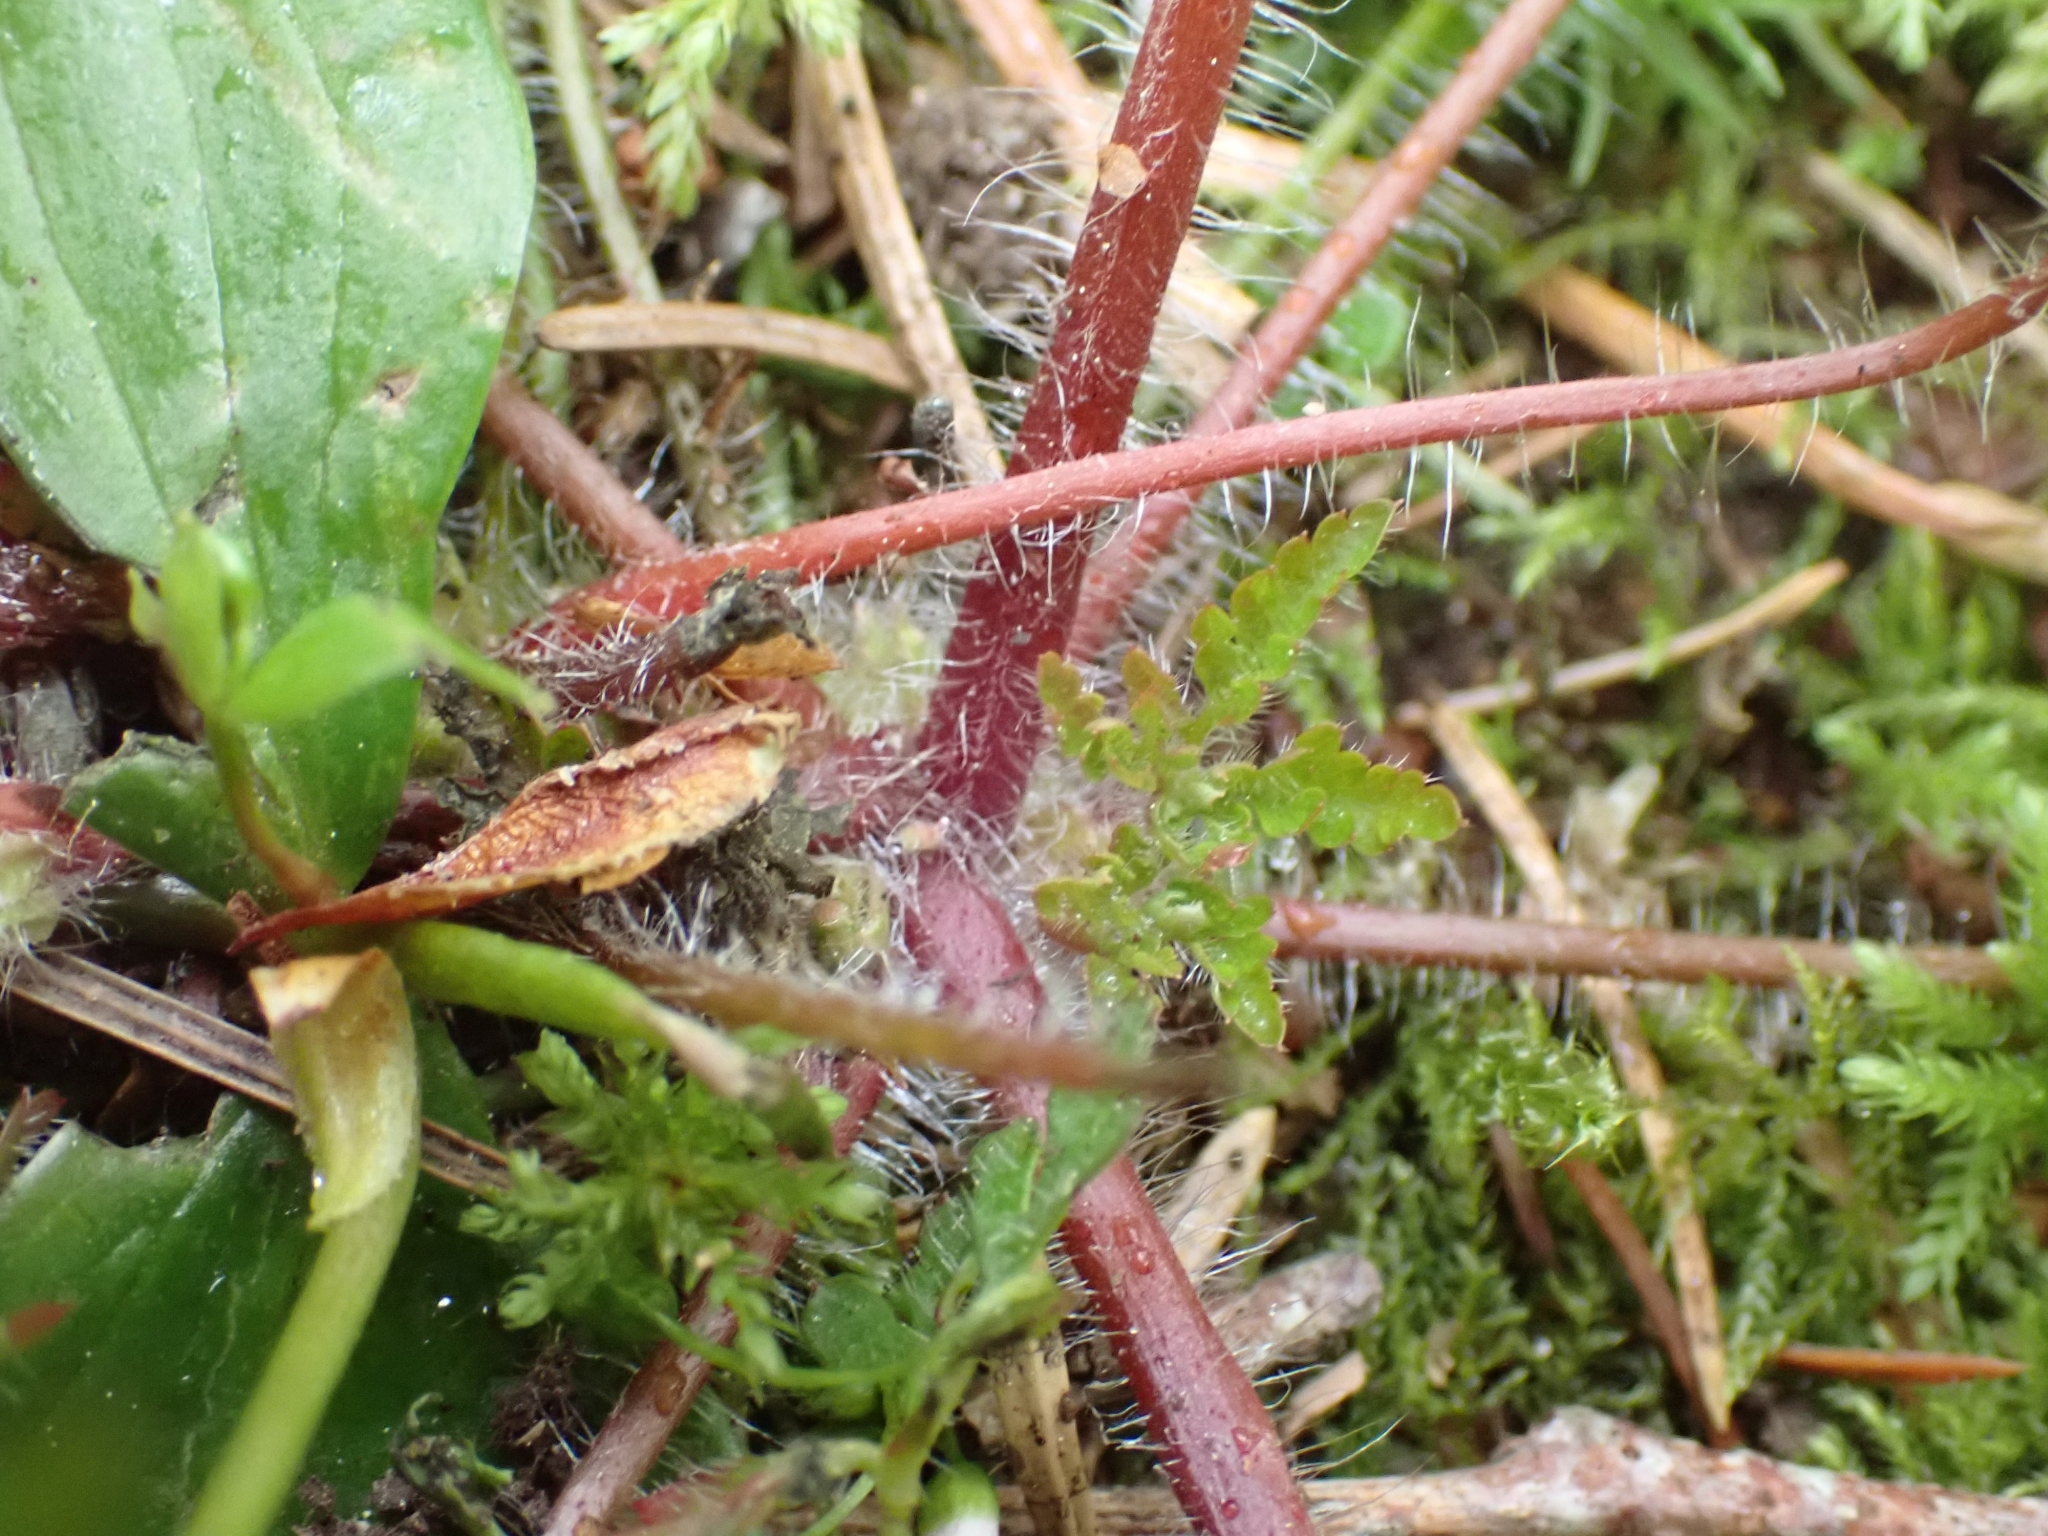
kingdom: Plantae
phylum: Tracheophyta
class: Magnoliopsida
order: Geraniales
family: Geraniaceae
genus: Geranium
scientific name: Geranium robertianum
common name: Herb-robert
